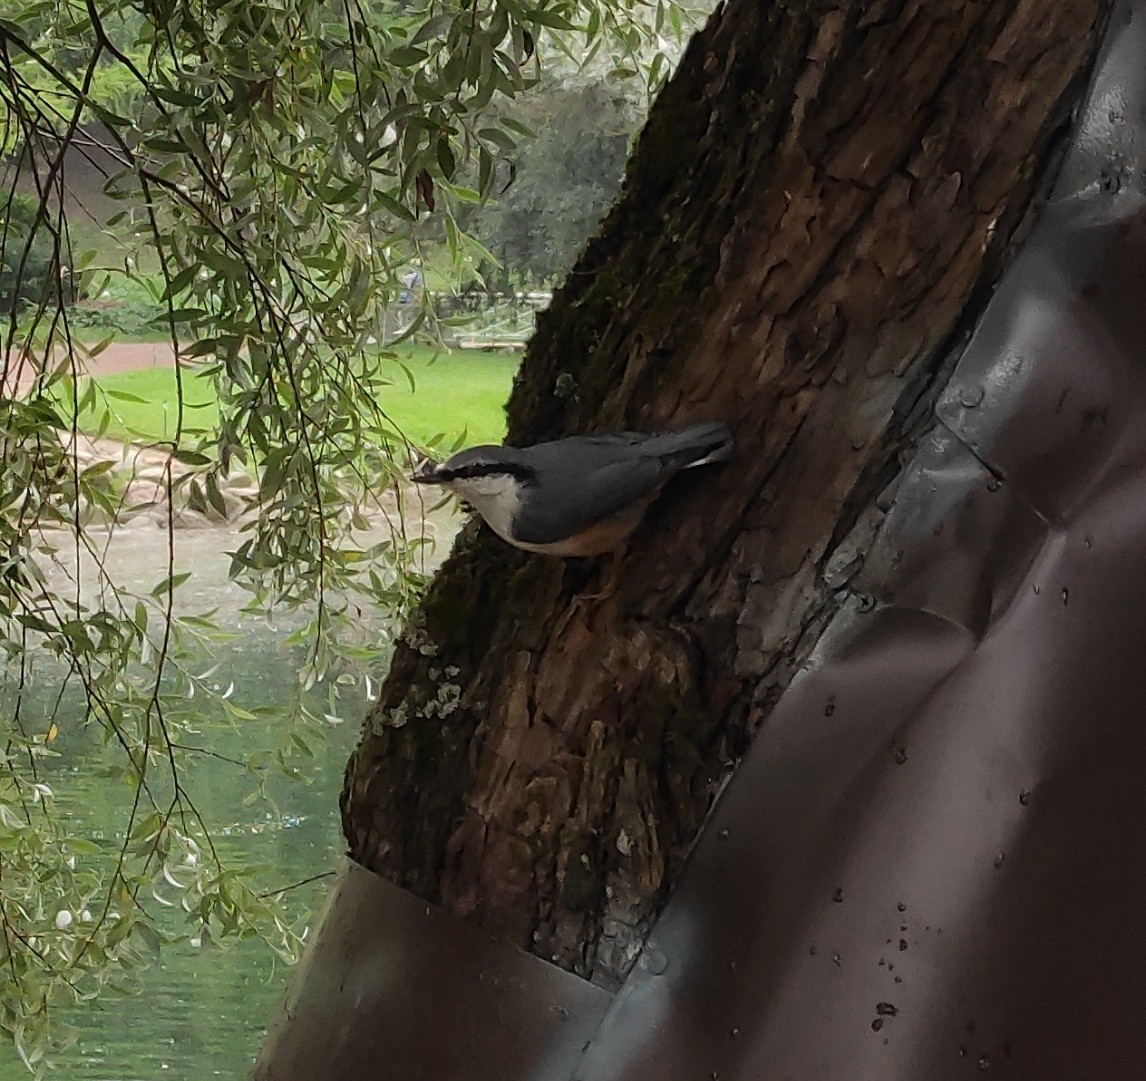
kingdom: Animalia
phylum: Chordata
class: Aves
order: Passeriformes
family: Sittidae
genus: Sitta
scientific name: Sitta europaea
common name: Eurasian nuthatch
